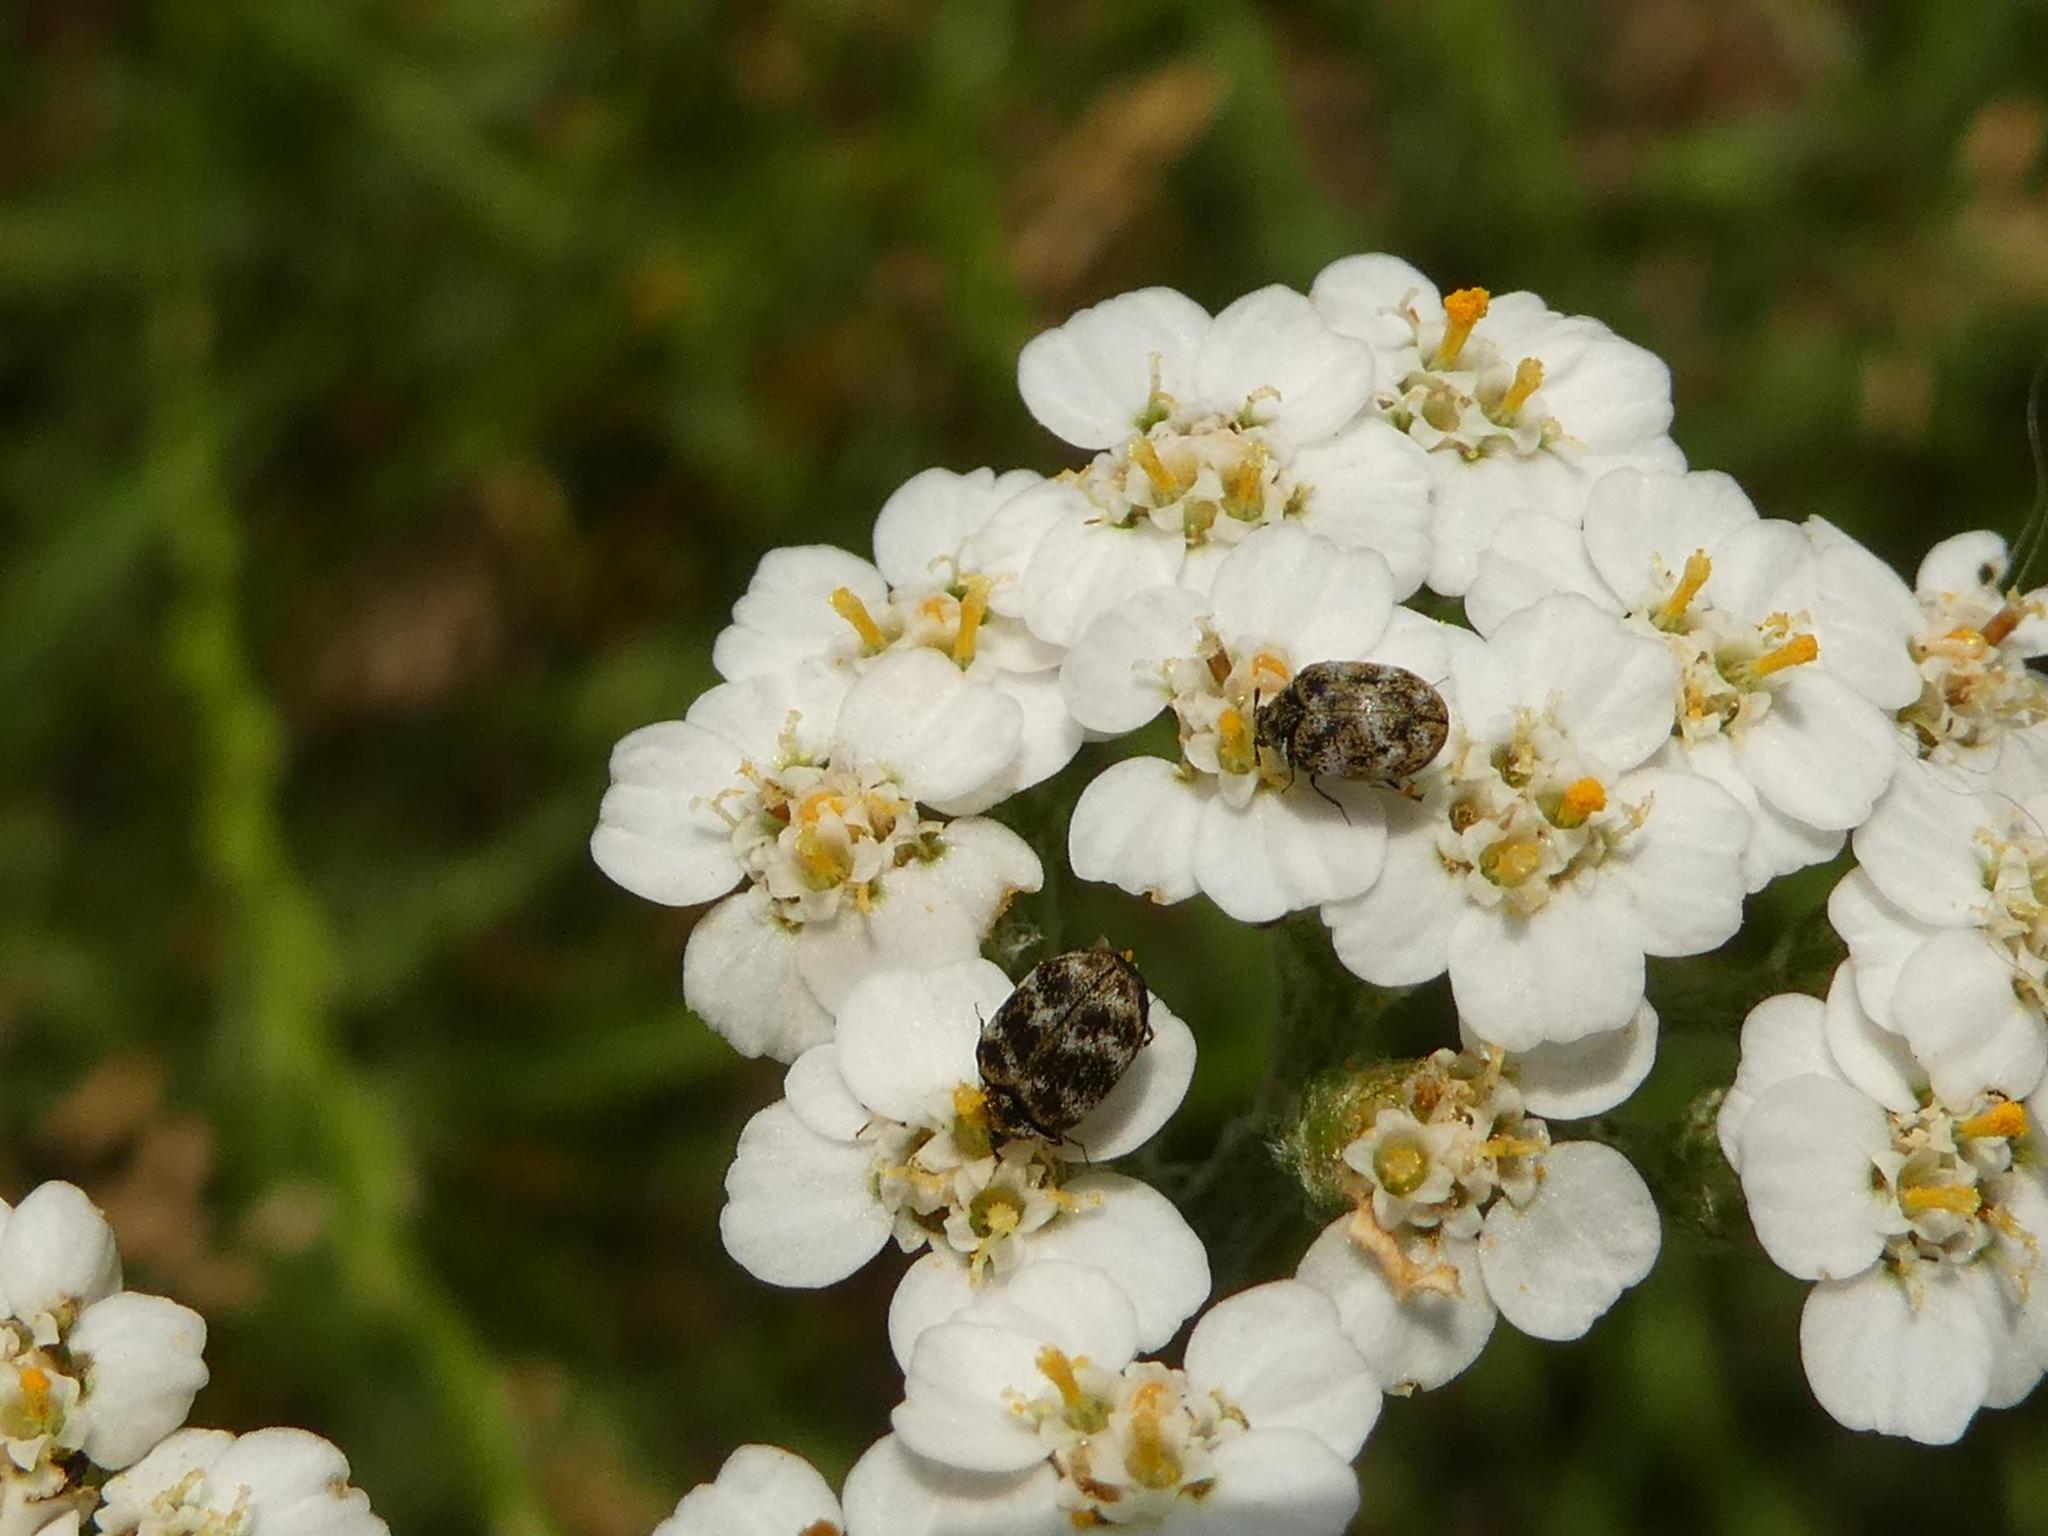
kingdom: Animalia
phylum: Arthropoda
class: Insecta
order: Coleoptera
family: Dermestidae
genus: Anthrenus
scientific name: Anthrenus verbasci
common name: Varied carpet beetle
